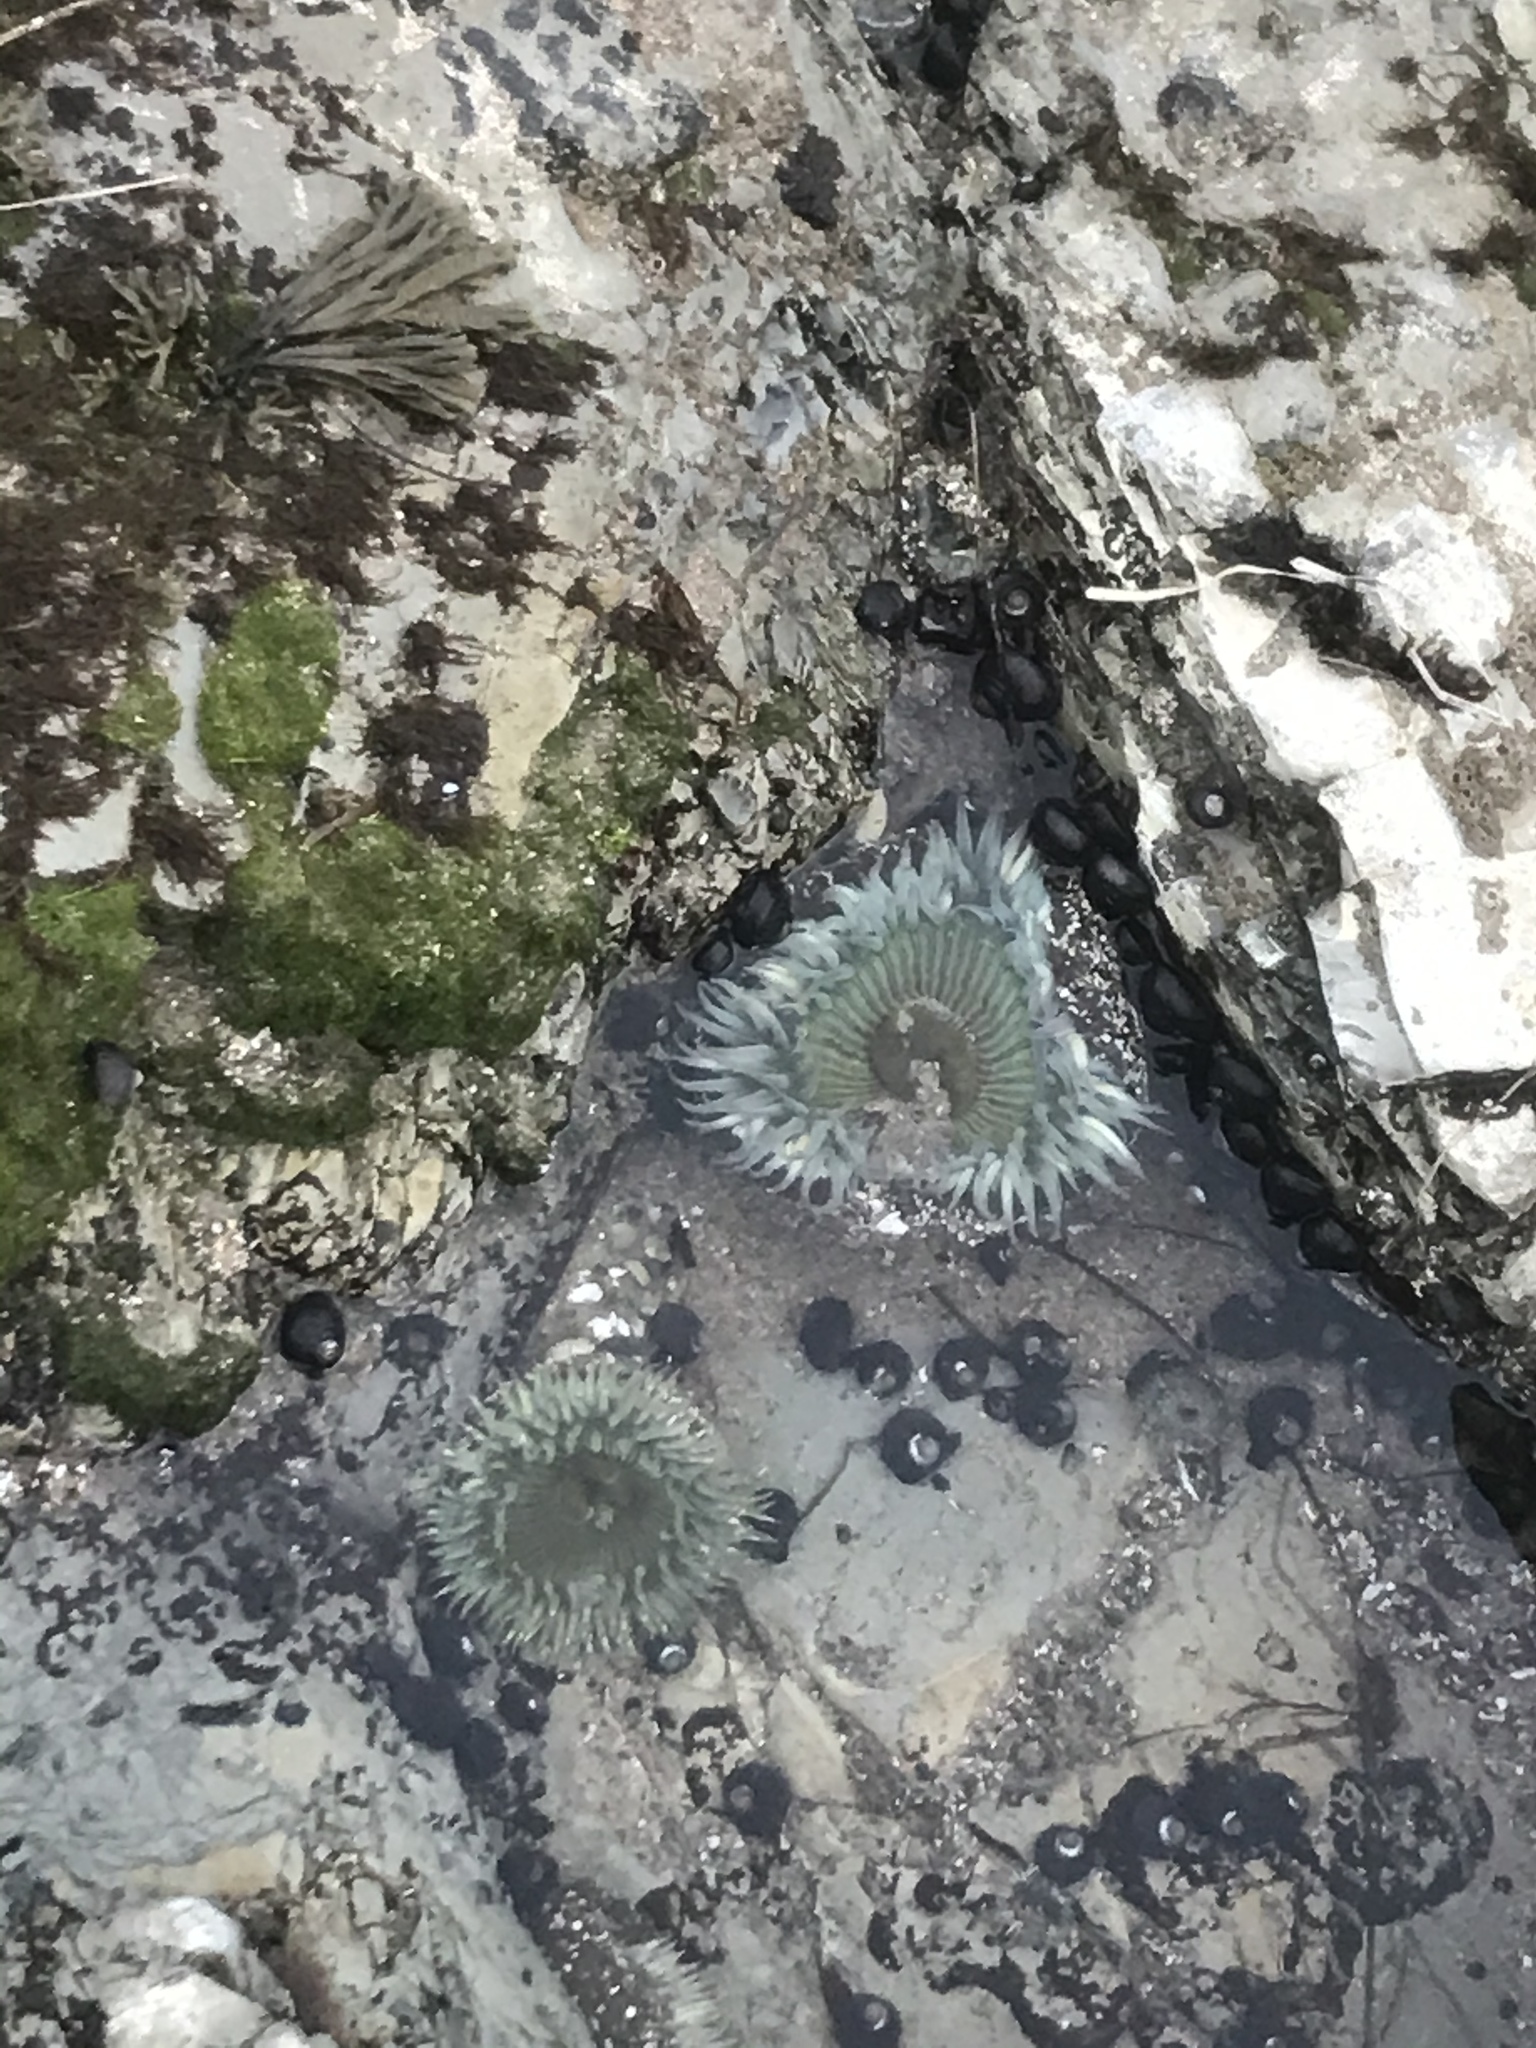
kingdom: Animalia
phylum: Cnidaria
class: Anthozoa
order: Actiniaria
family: Actiniidae
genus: Anthopleura
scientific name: Anthopleura sola
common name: Sun anemone
